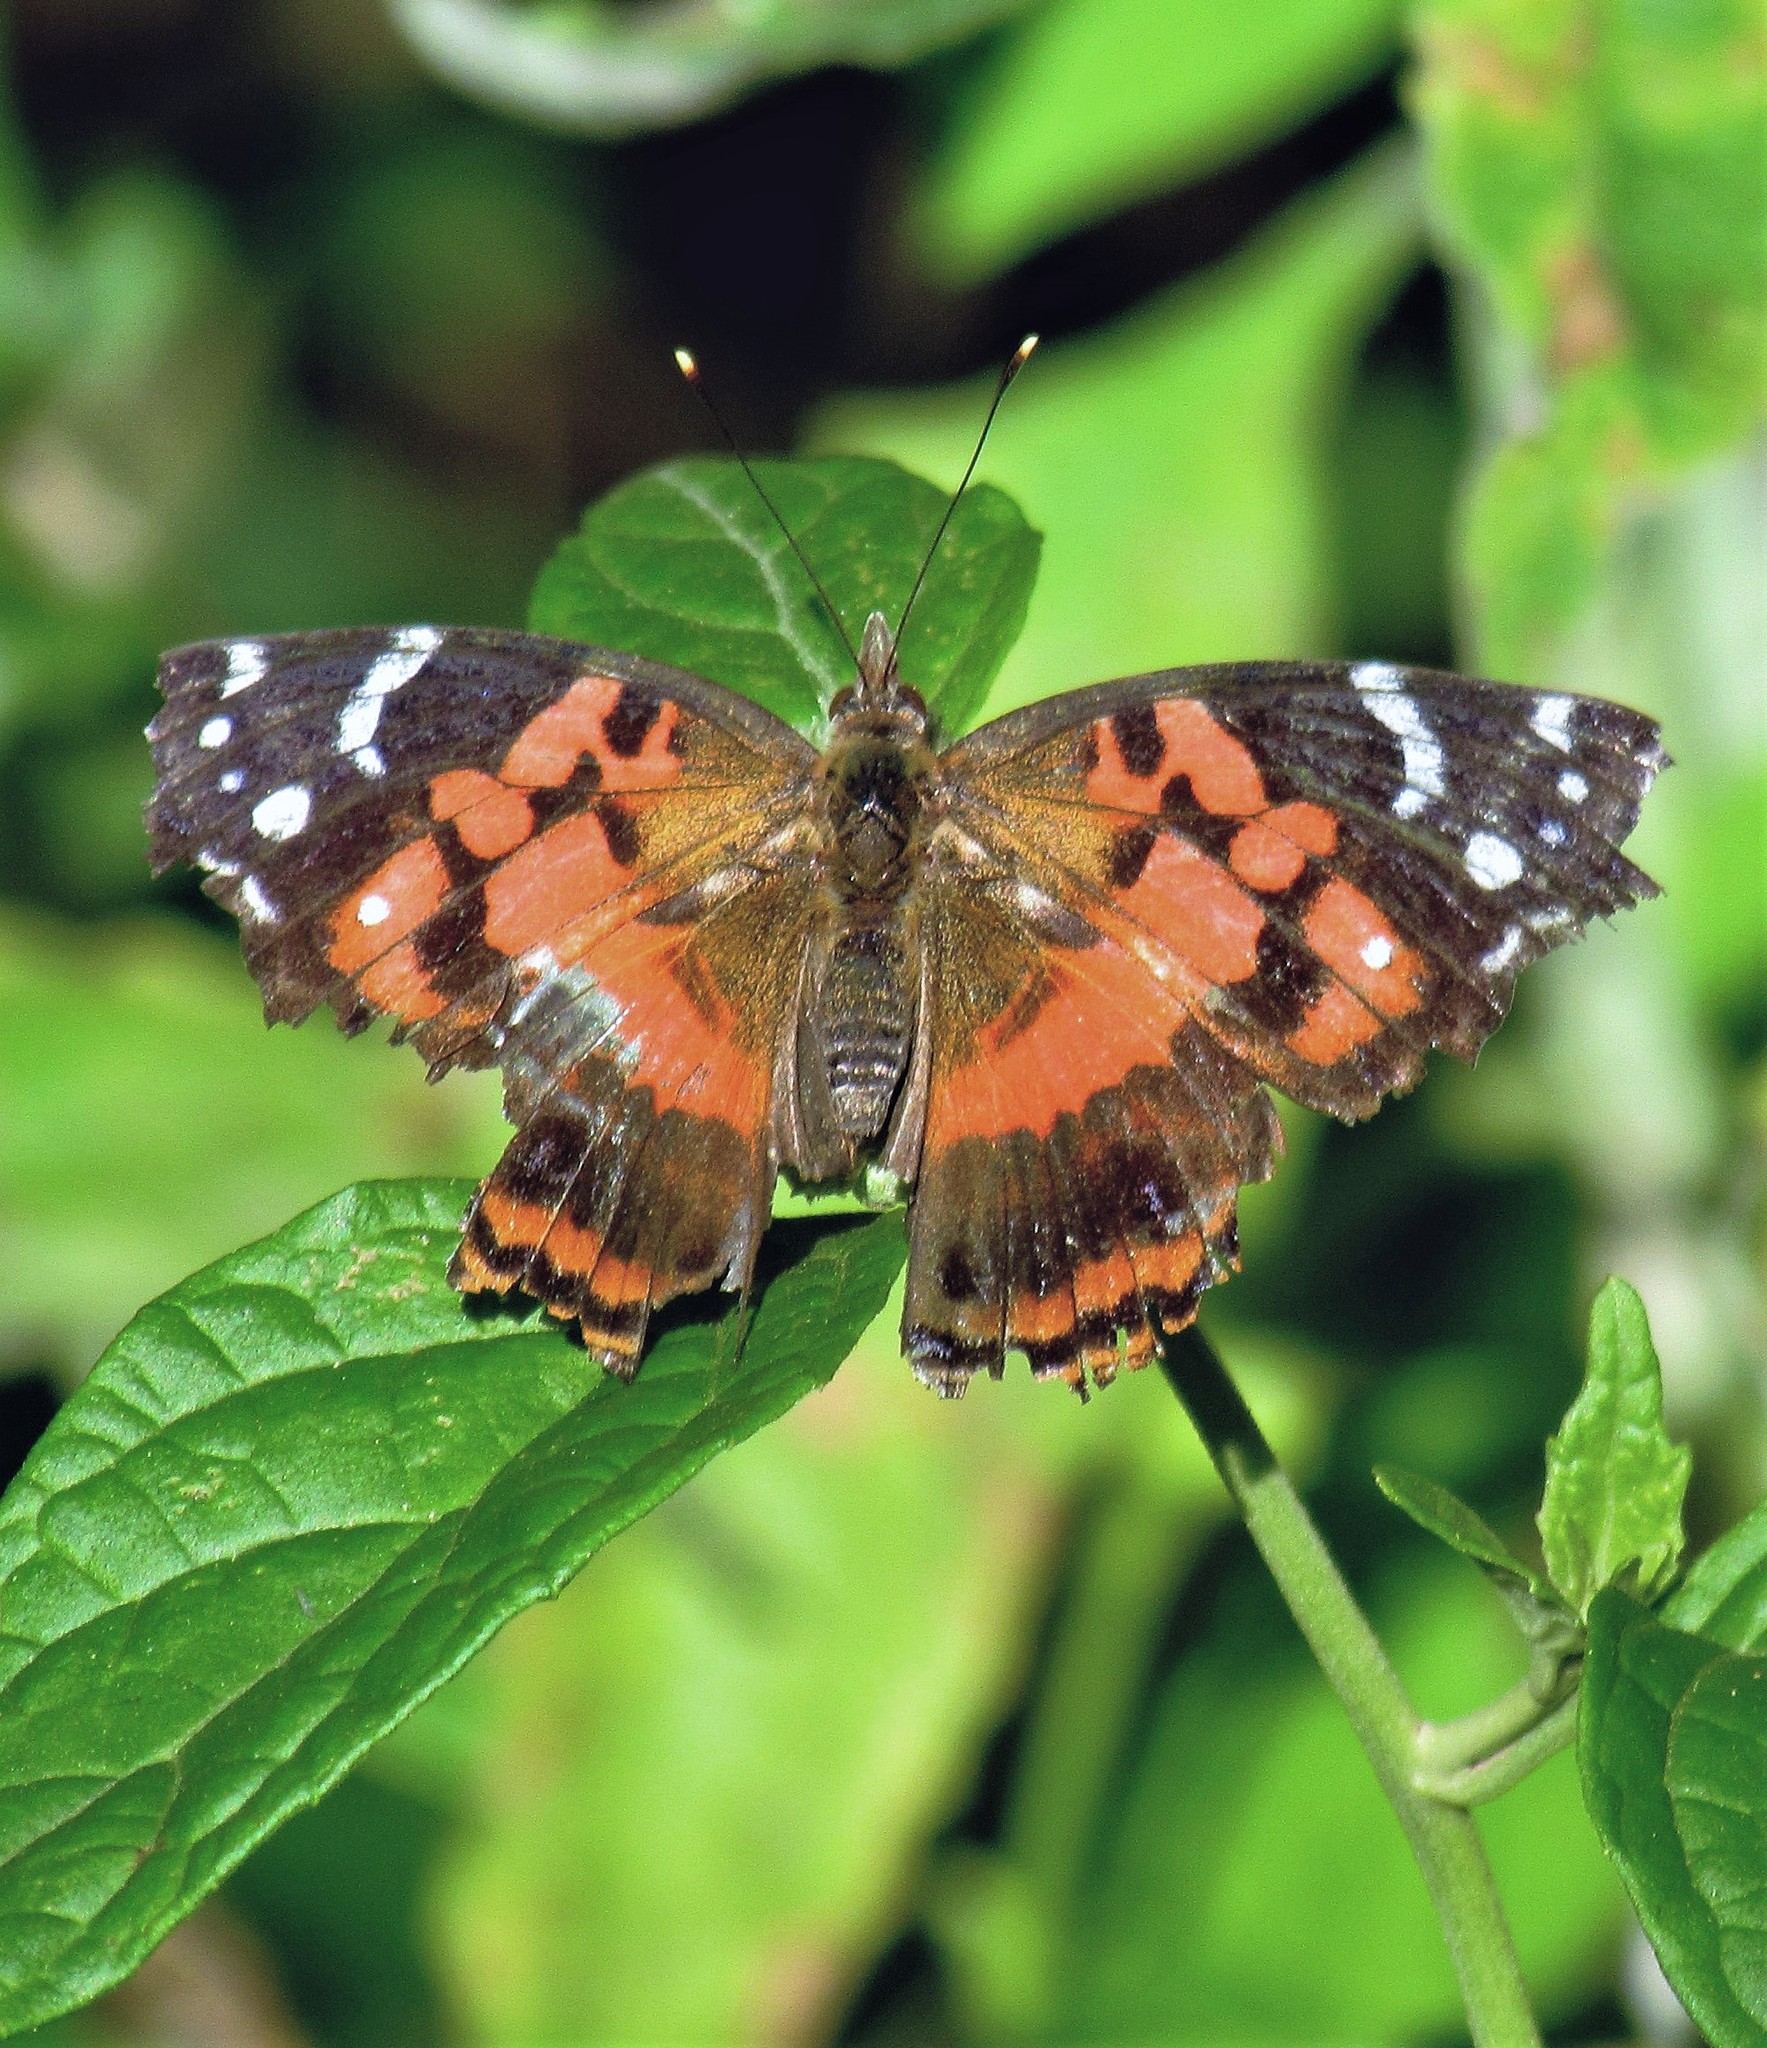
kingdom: Animalia
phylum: Arthropoda
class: Insecta
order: Lepidoptera
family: Nymphalidae
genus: Vanessa
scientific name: Vanessa myrinna
